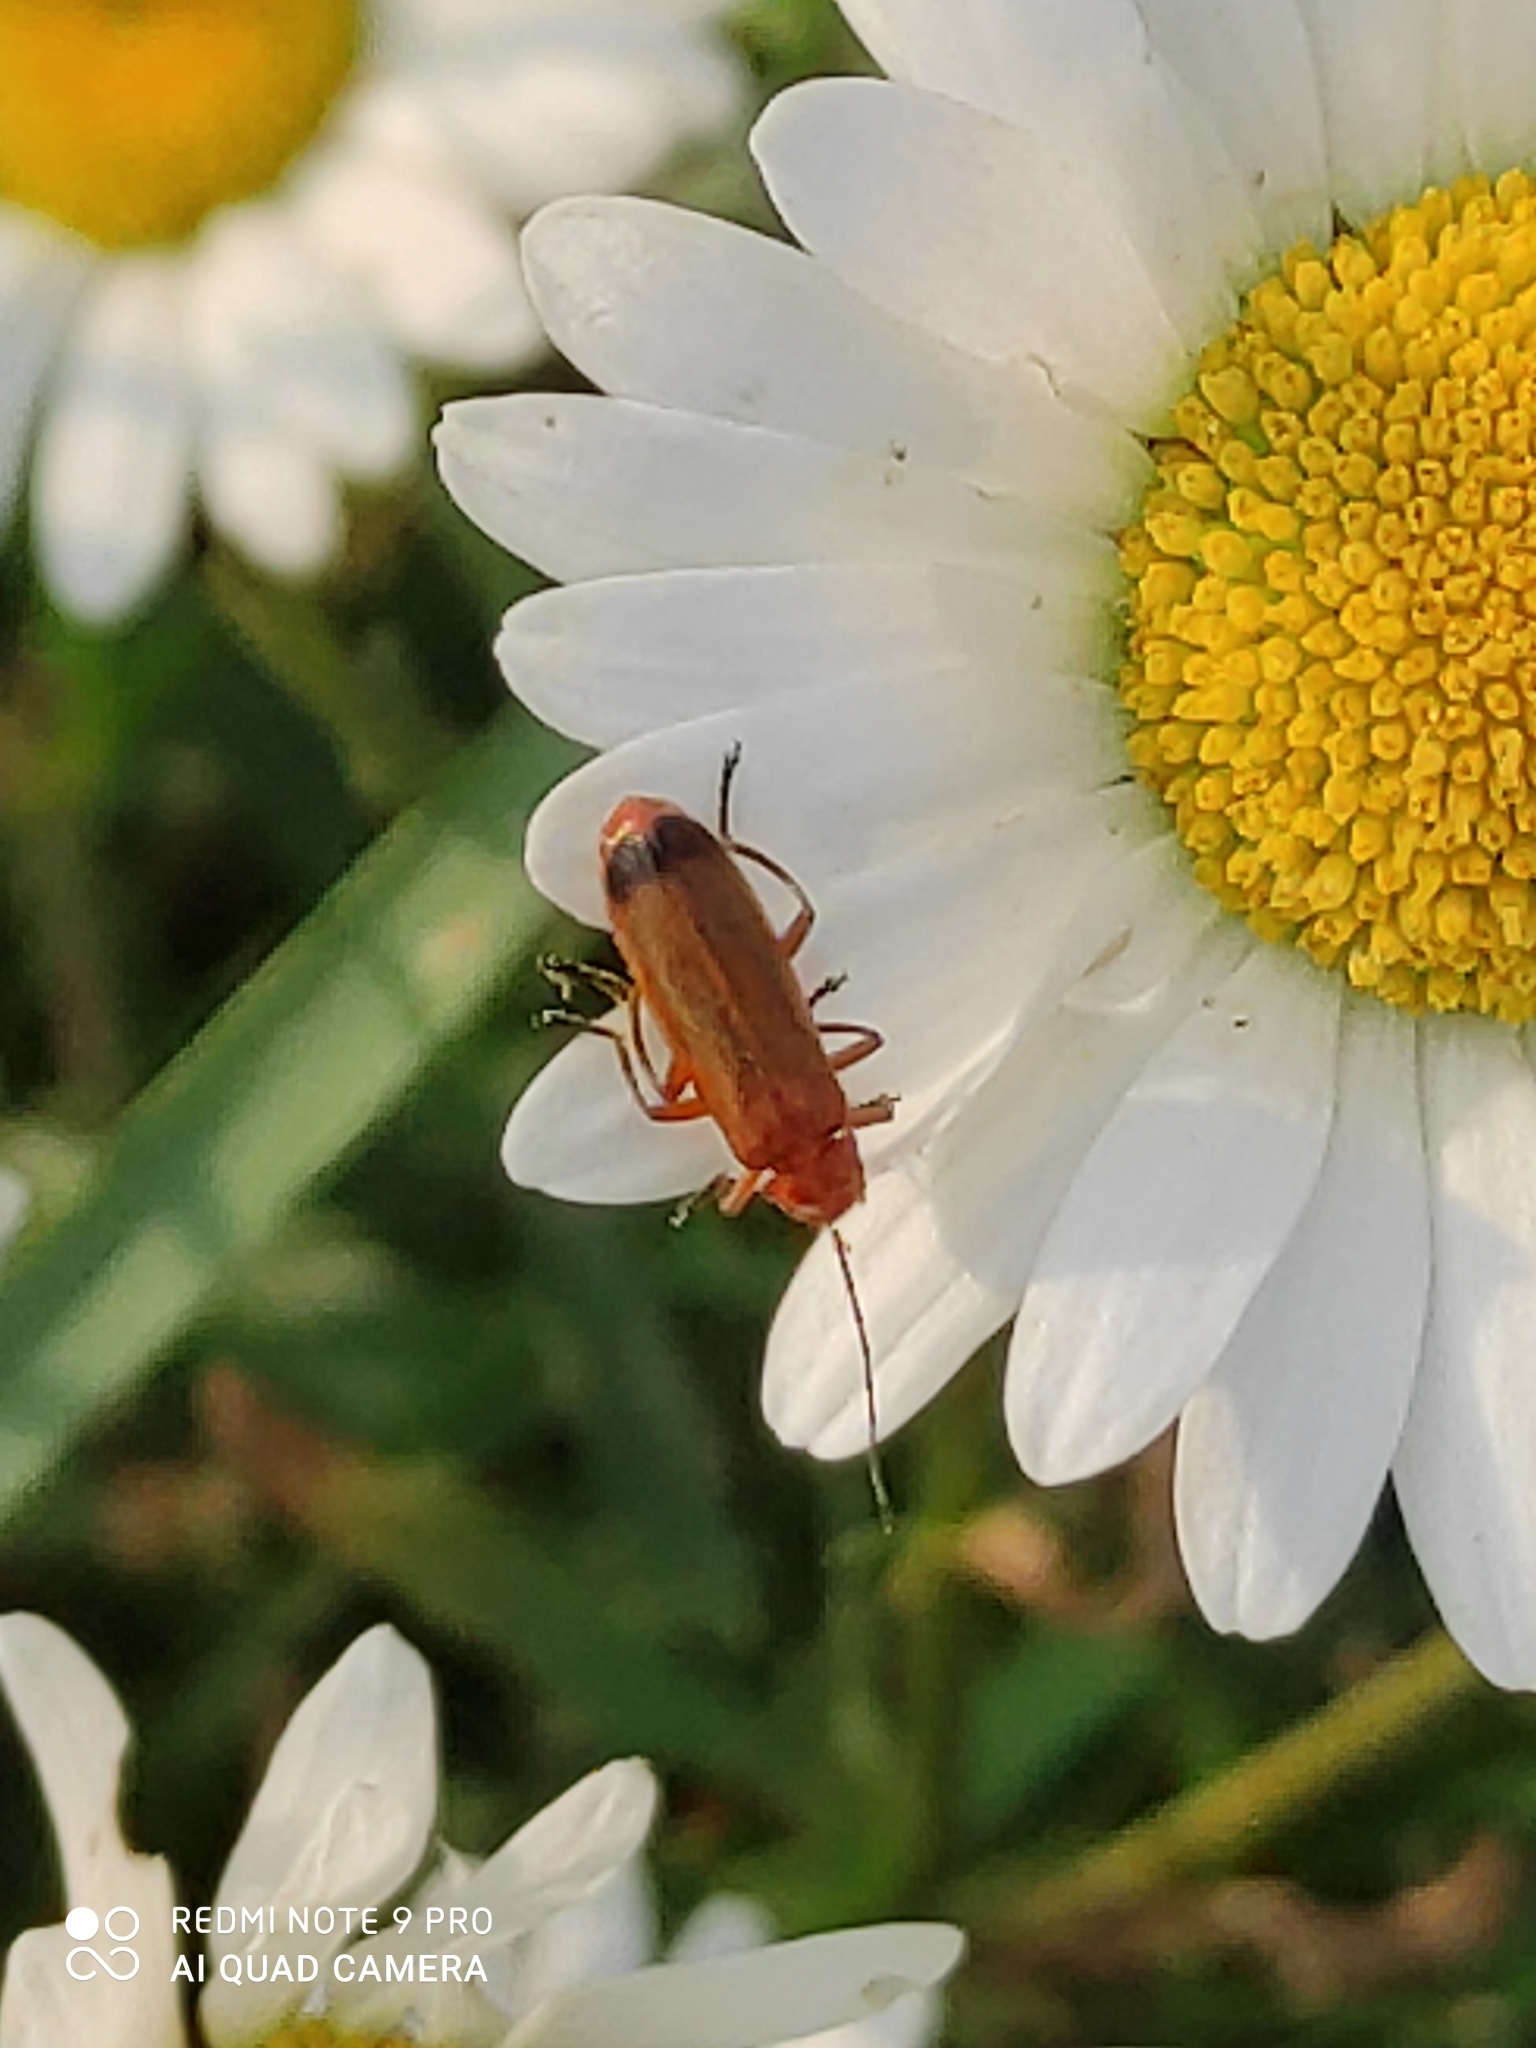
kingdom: Animalia
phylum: Arthropoda
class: Insecta
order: Coleoptera
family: Cantharidae
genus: Rhagonycha
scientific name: Rhagonycha fulva
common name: Common red soldier beetle
